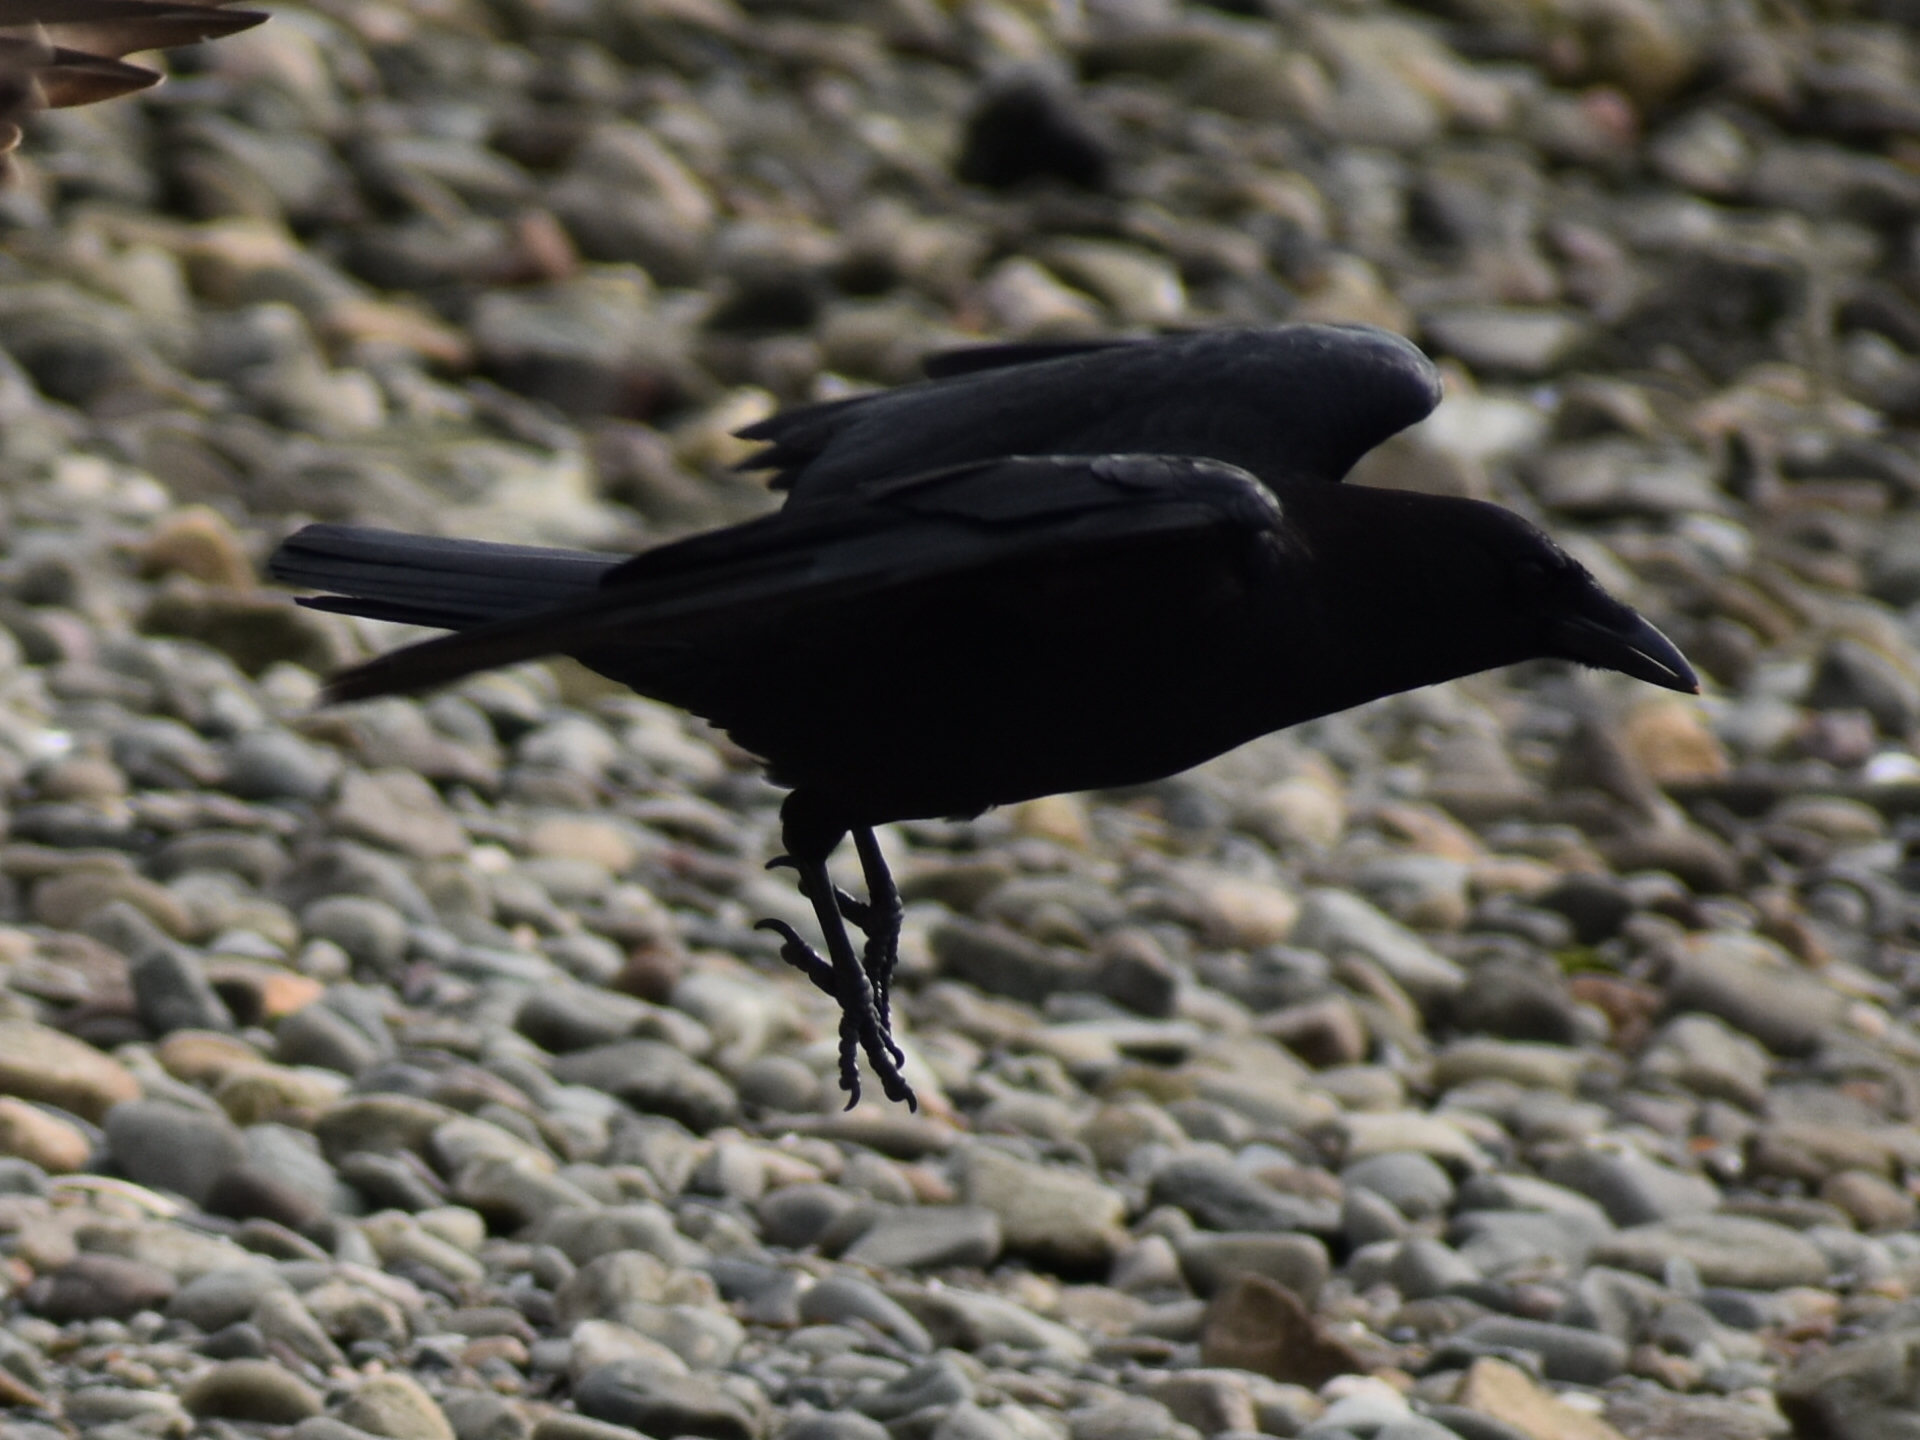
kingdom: Animalia
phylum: Chordata
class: Aves
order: Passeriformes
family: Corvidae
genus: Corvus
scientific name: Corvus brachyrhynchos
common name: American crow
